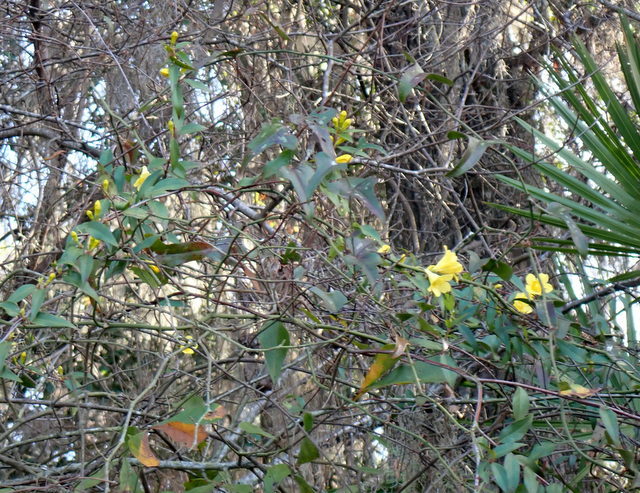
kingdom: Plantae
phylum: Tracheophyta
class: Magnoliopsida
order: Gentianales
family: Gelsemiaceae
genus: Gelsemium
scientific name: Gelsemium sempervirens
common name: Carolina-jasmine
